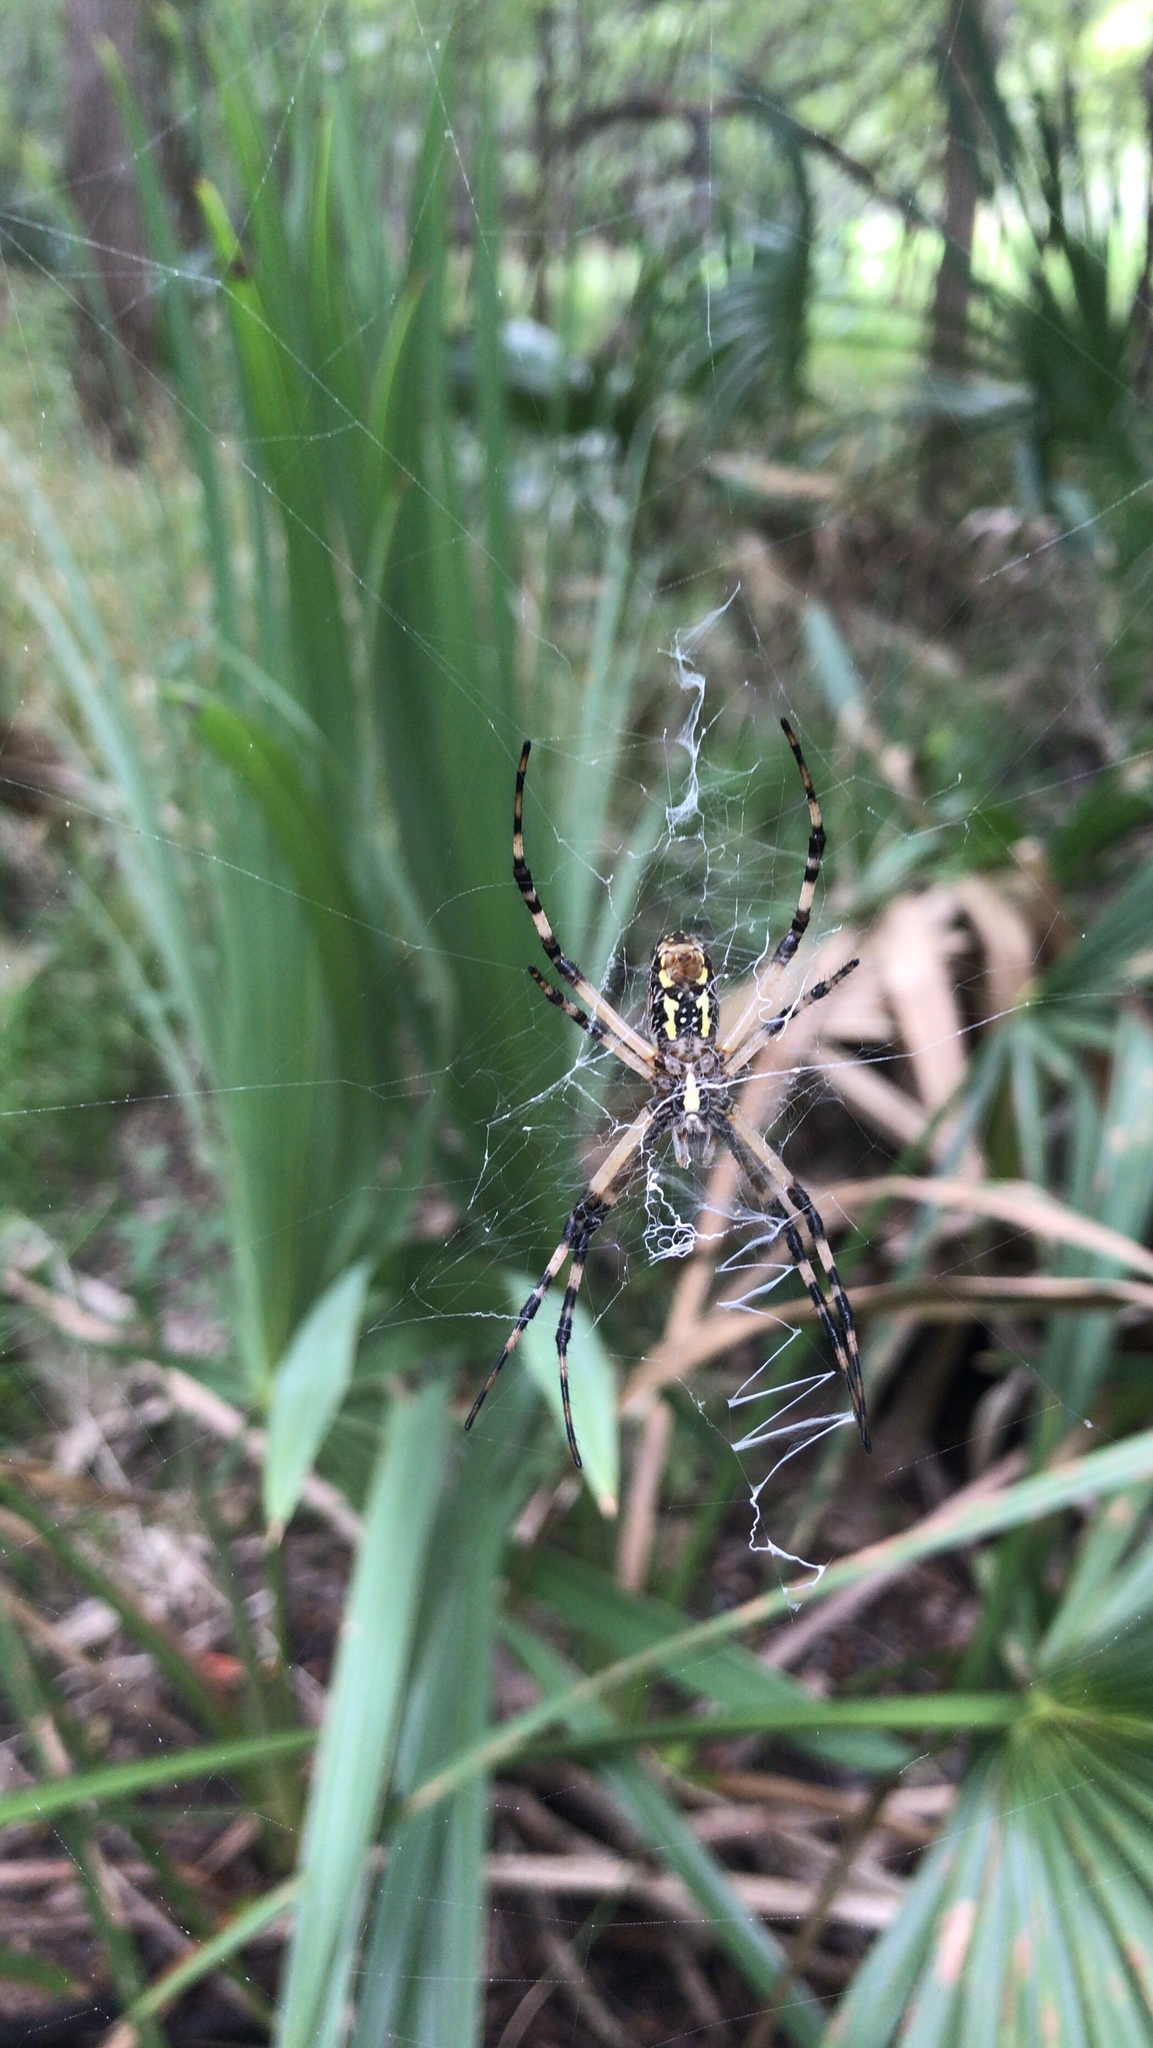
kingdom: Animalia
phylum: Arthropoda
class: Arachnida
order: Araneae
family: Araneidae
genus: Argiope
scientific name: Argiope aurantia
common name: Orb weavers
